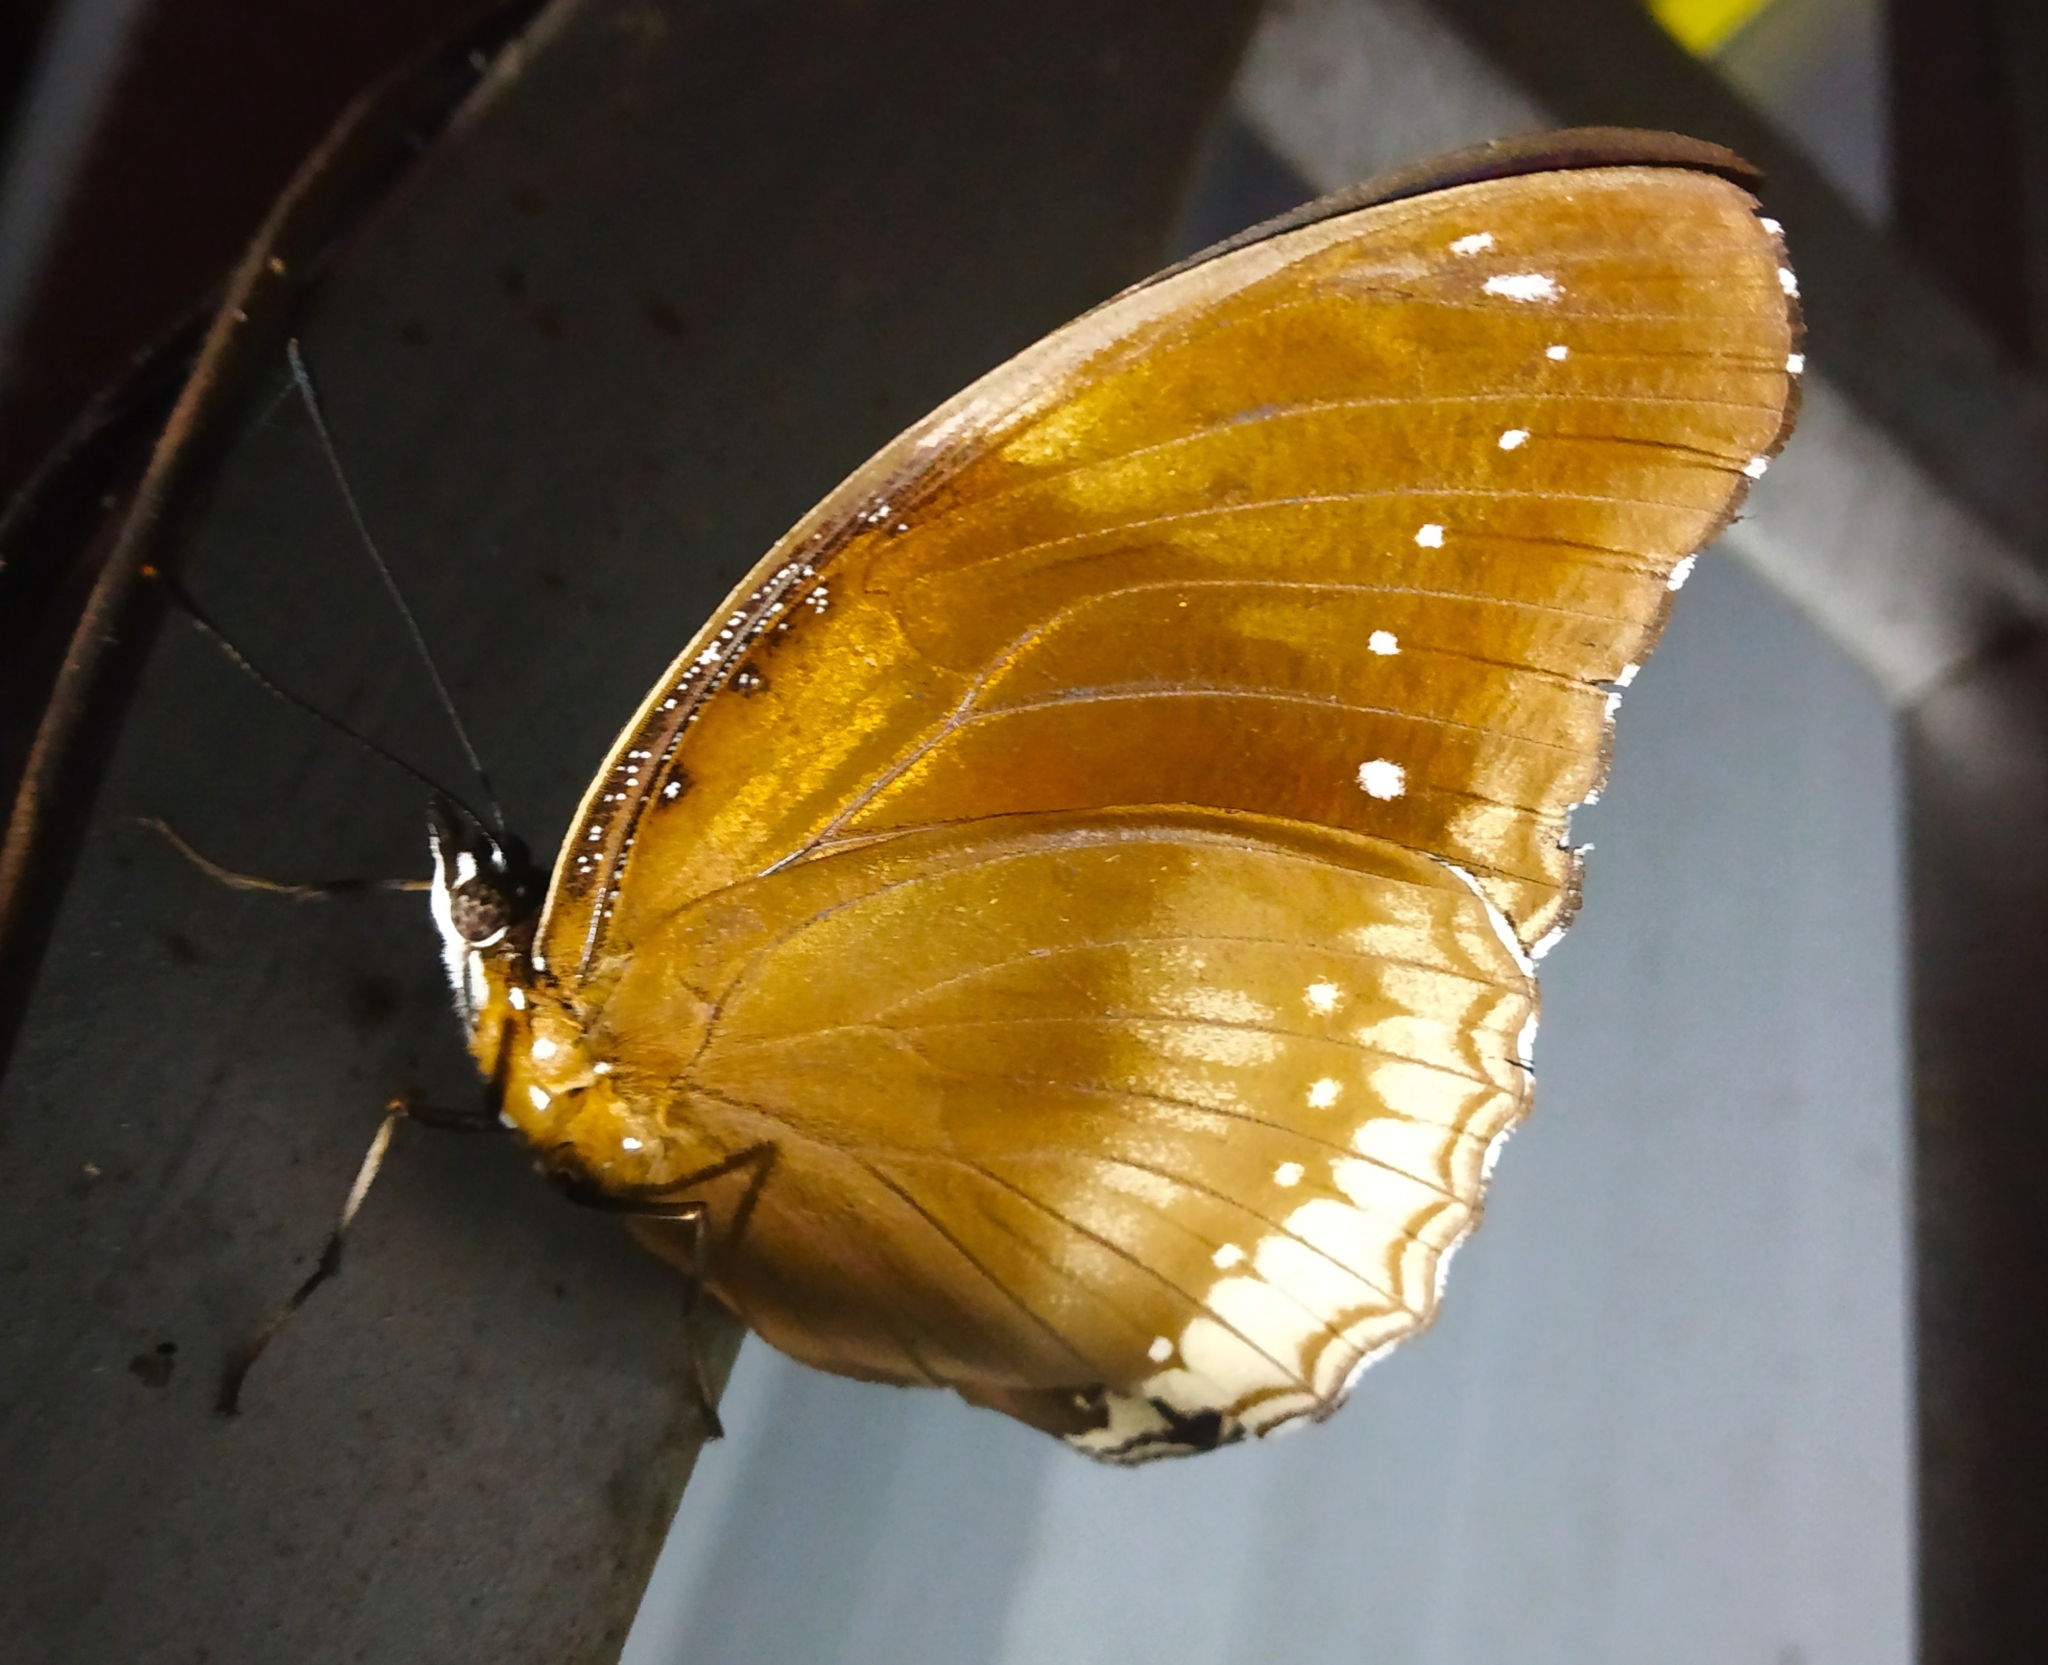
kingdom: Animalia
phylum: Arthropoda
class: Insecta
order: Lepidoptera
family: Nymphalidae
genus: Hypolimnas
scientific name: Hypolimnas bolina
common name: Great eggfly
